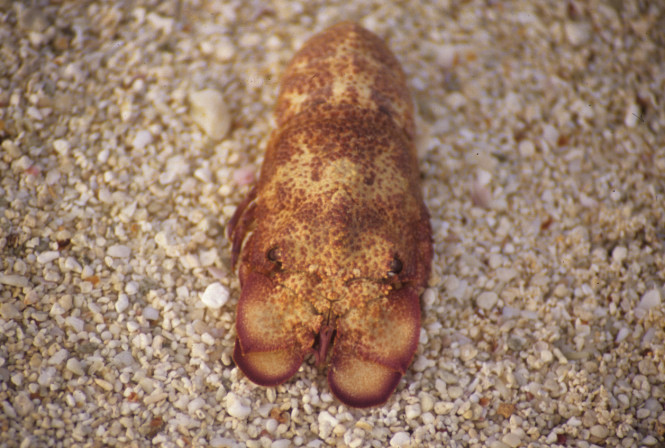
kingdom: Animalia
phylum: Arthropoda
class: Malacostraca
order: Decapoda
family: Scyllaridae
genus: Scyllarides
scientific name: Scyllarides squammosus
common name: Blunt slipper lobster
